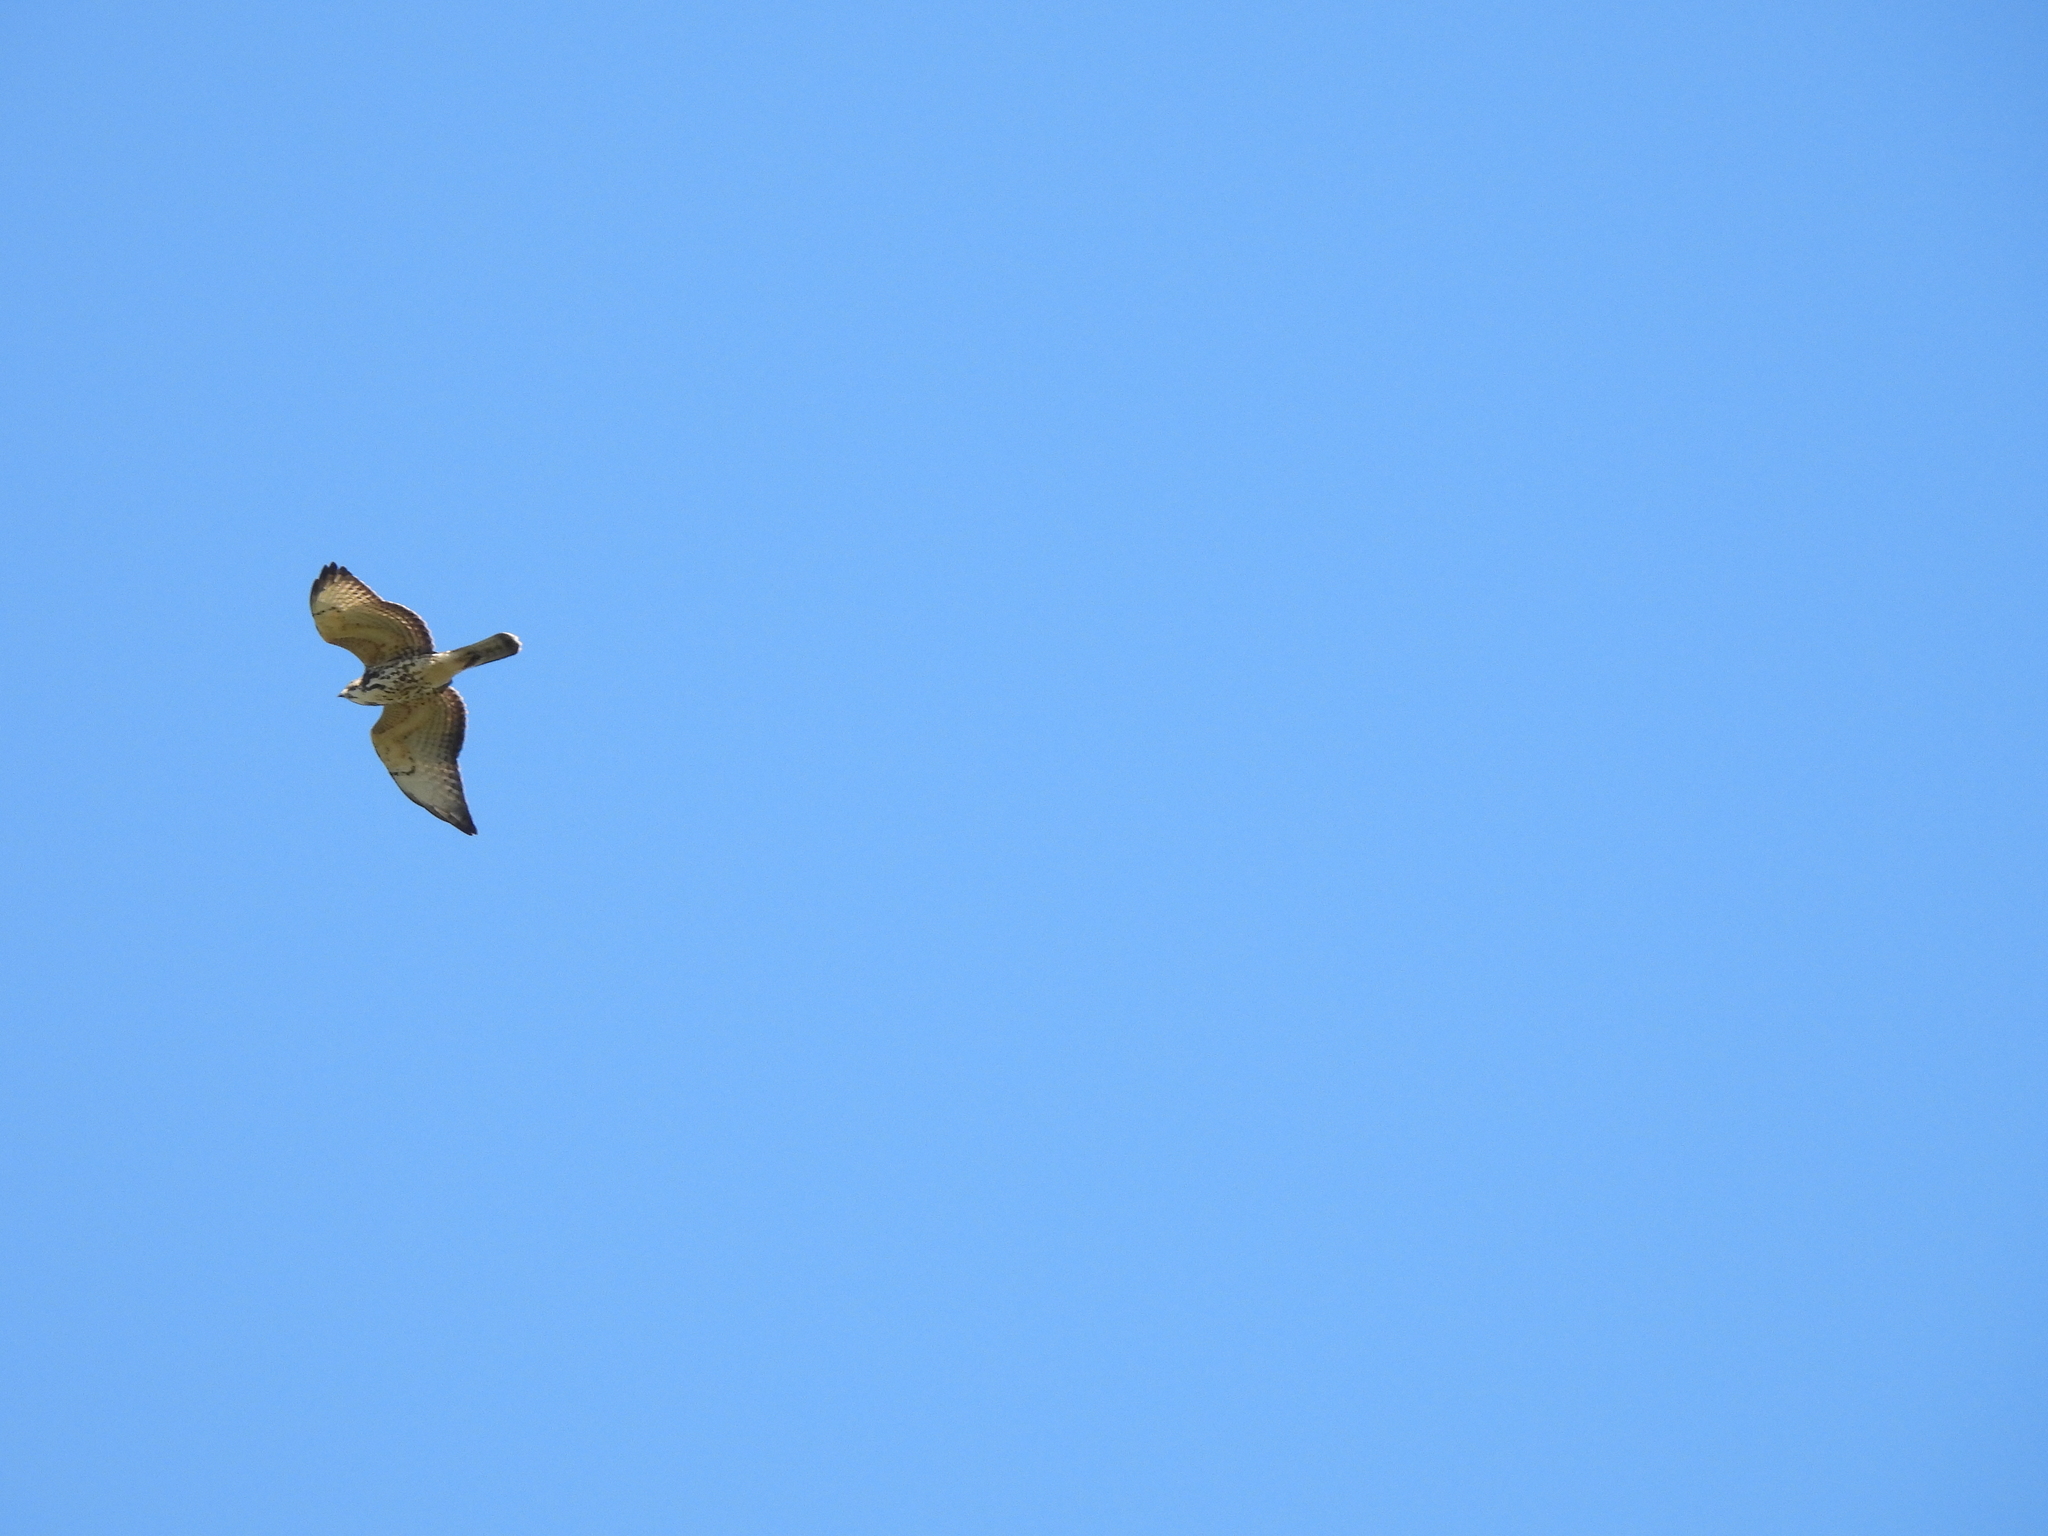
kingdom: Animalia
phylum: Chordata
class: Aves
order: Accipitriformes
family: Accipitridae
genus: Buteo
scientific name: Buteo platypterus
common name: Broad-winged hawk
